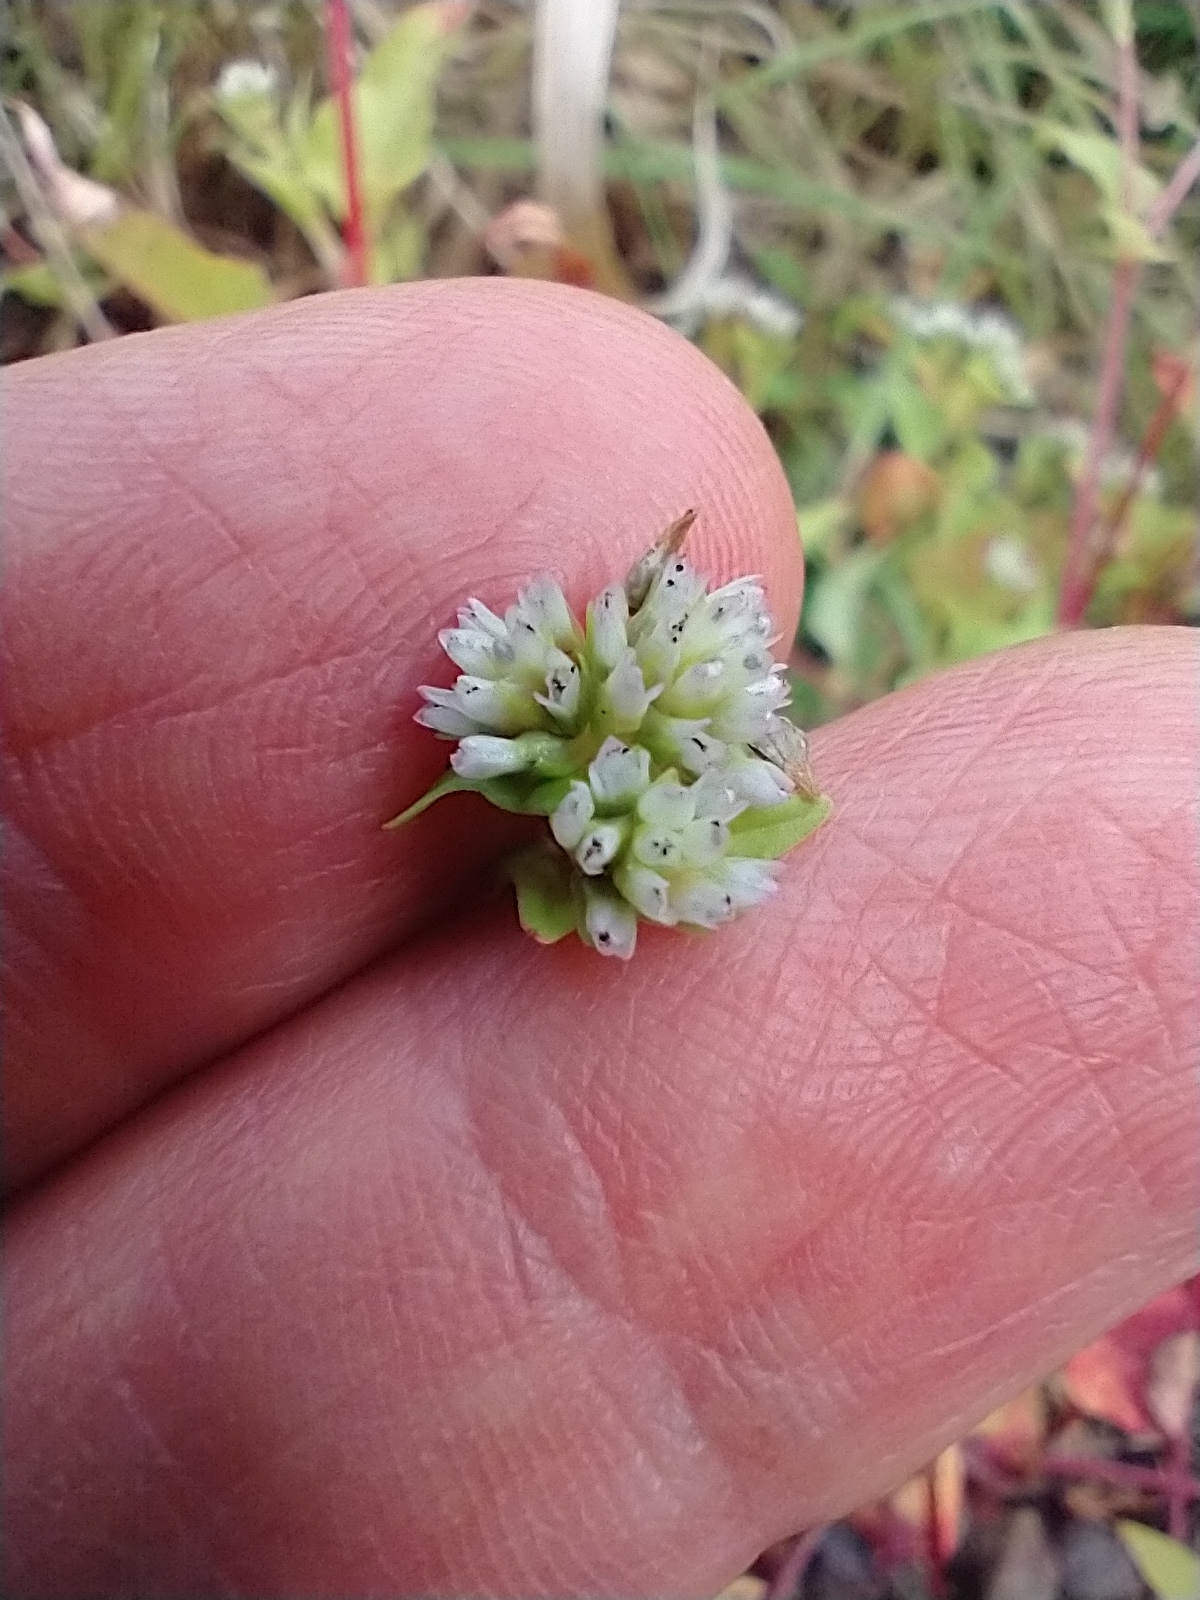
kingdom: Plantae
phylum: Tracheophyta
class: Magnoliopsida
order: Caryophyllales
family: Polygonaceae
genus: Persicaria
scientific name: Persicaria nepalensis
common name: Nepal persicaria
